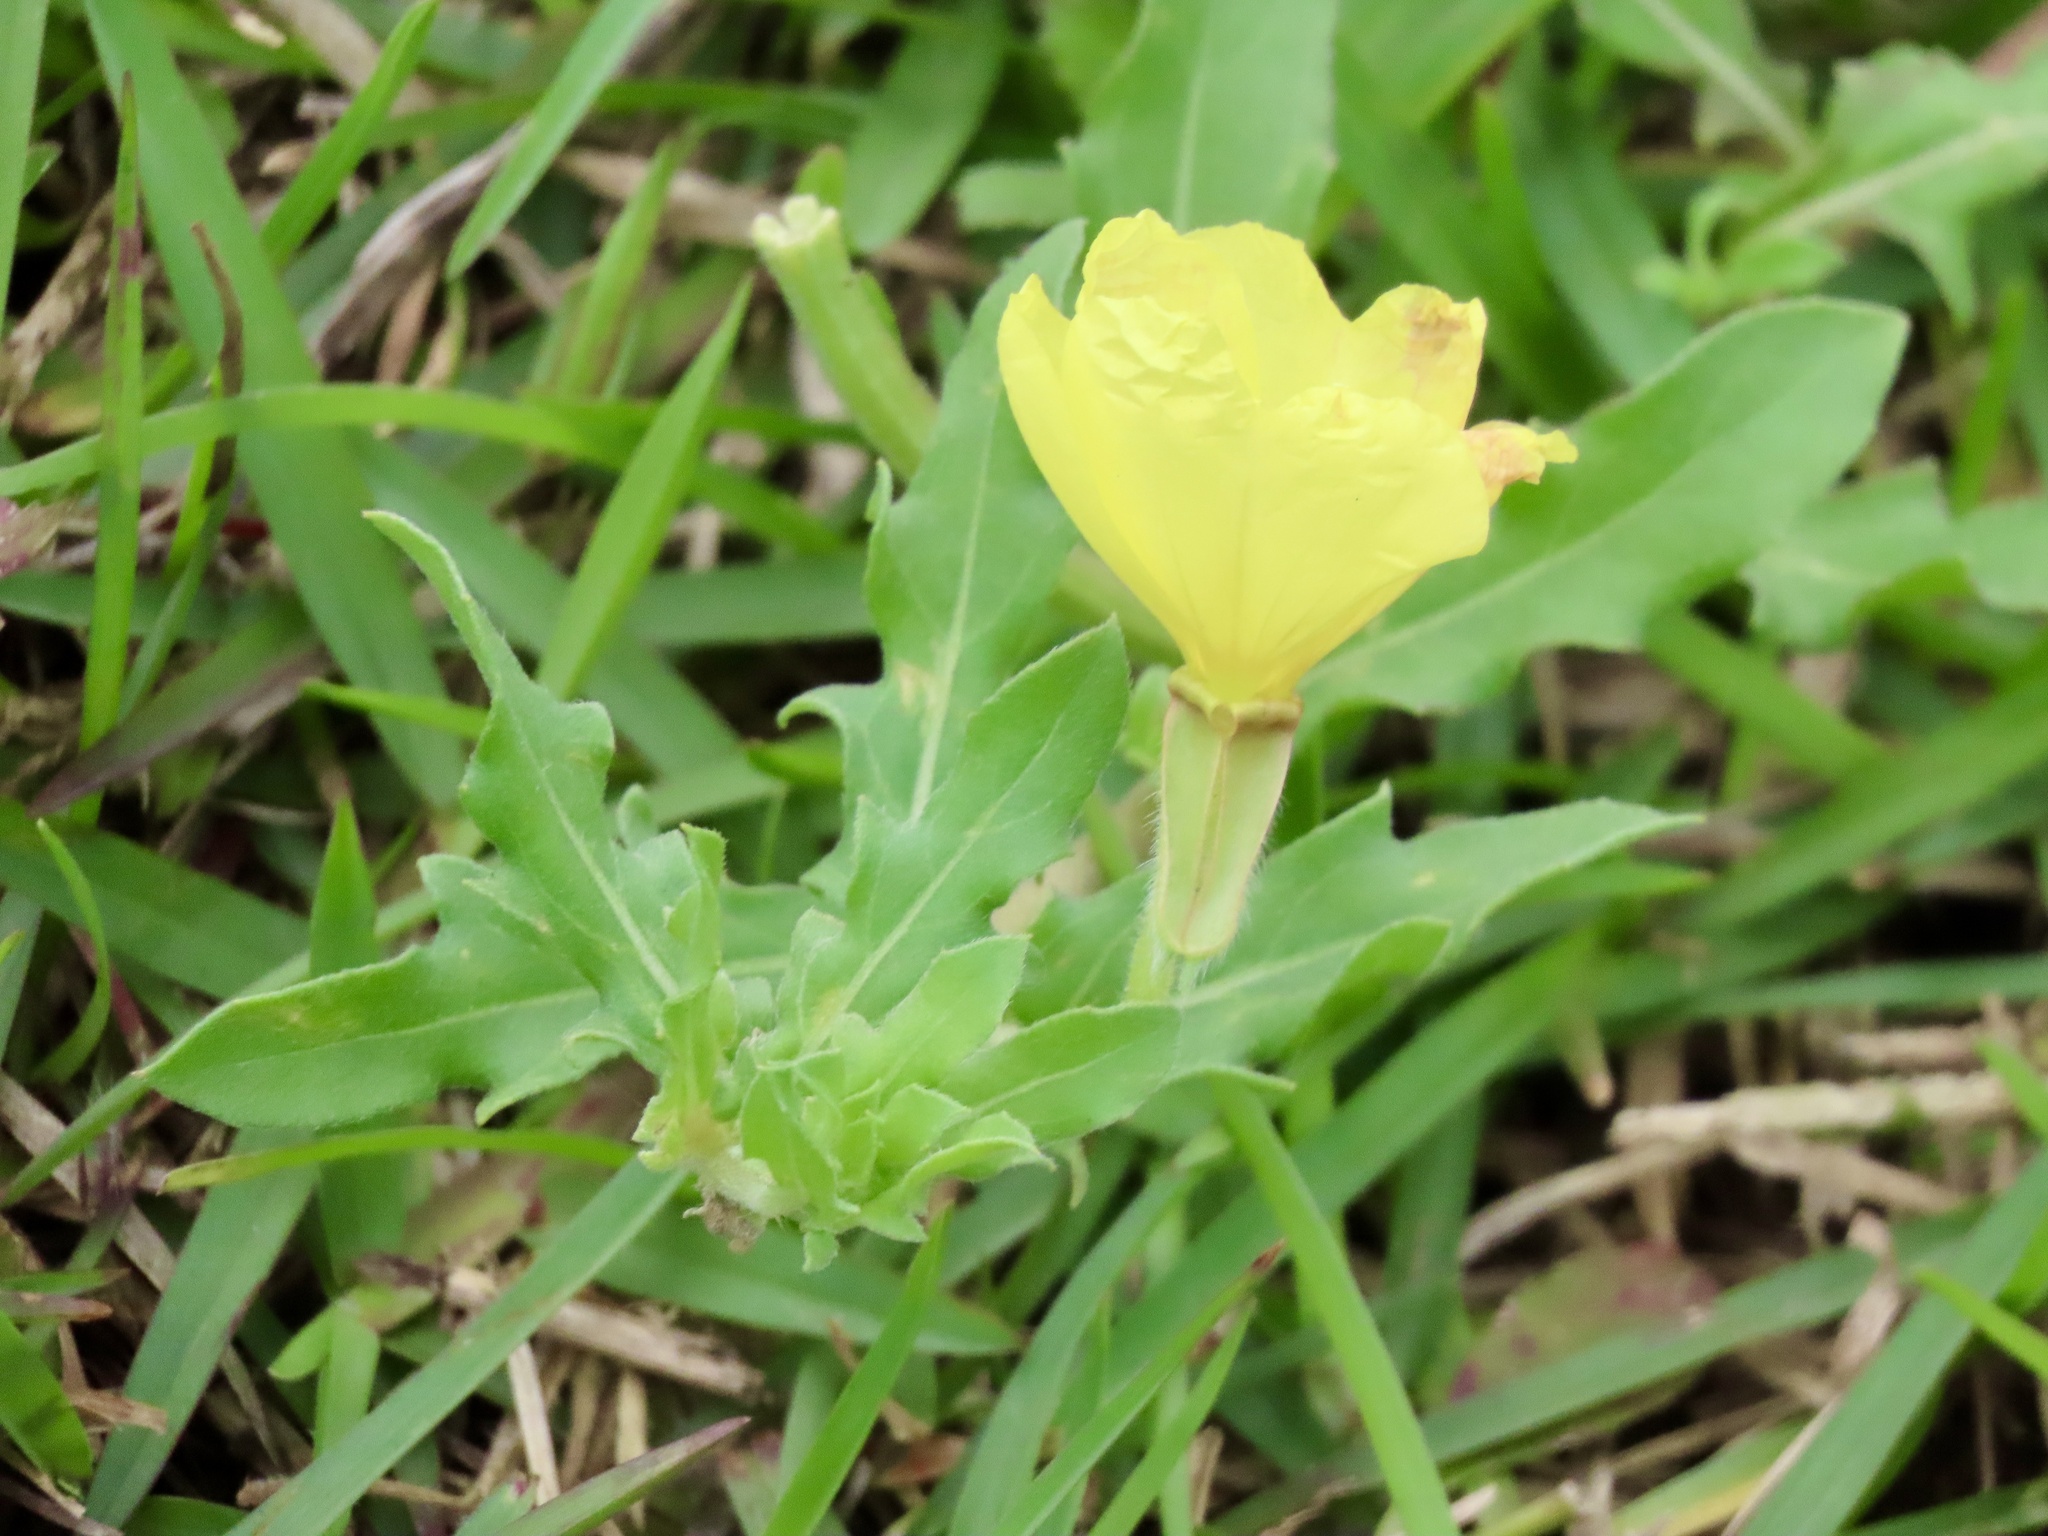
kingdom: Plantae
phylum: Tracheophyta
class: Magnoliopsida
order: Myrtales
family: Onagraceae
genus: Oenothera
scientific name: Oenothera laciniata
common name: Cut-leaved evening-primrose
